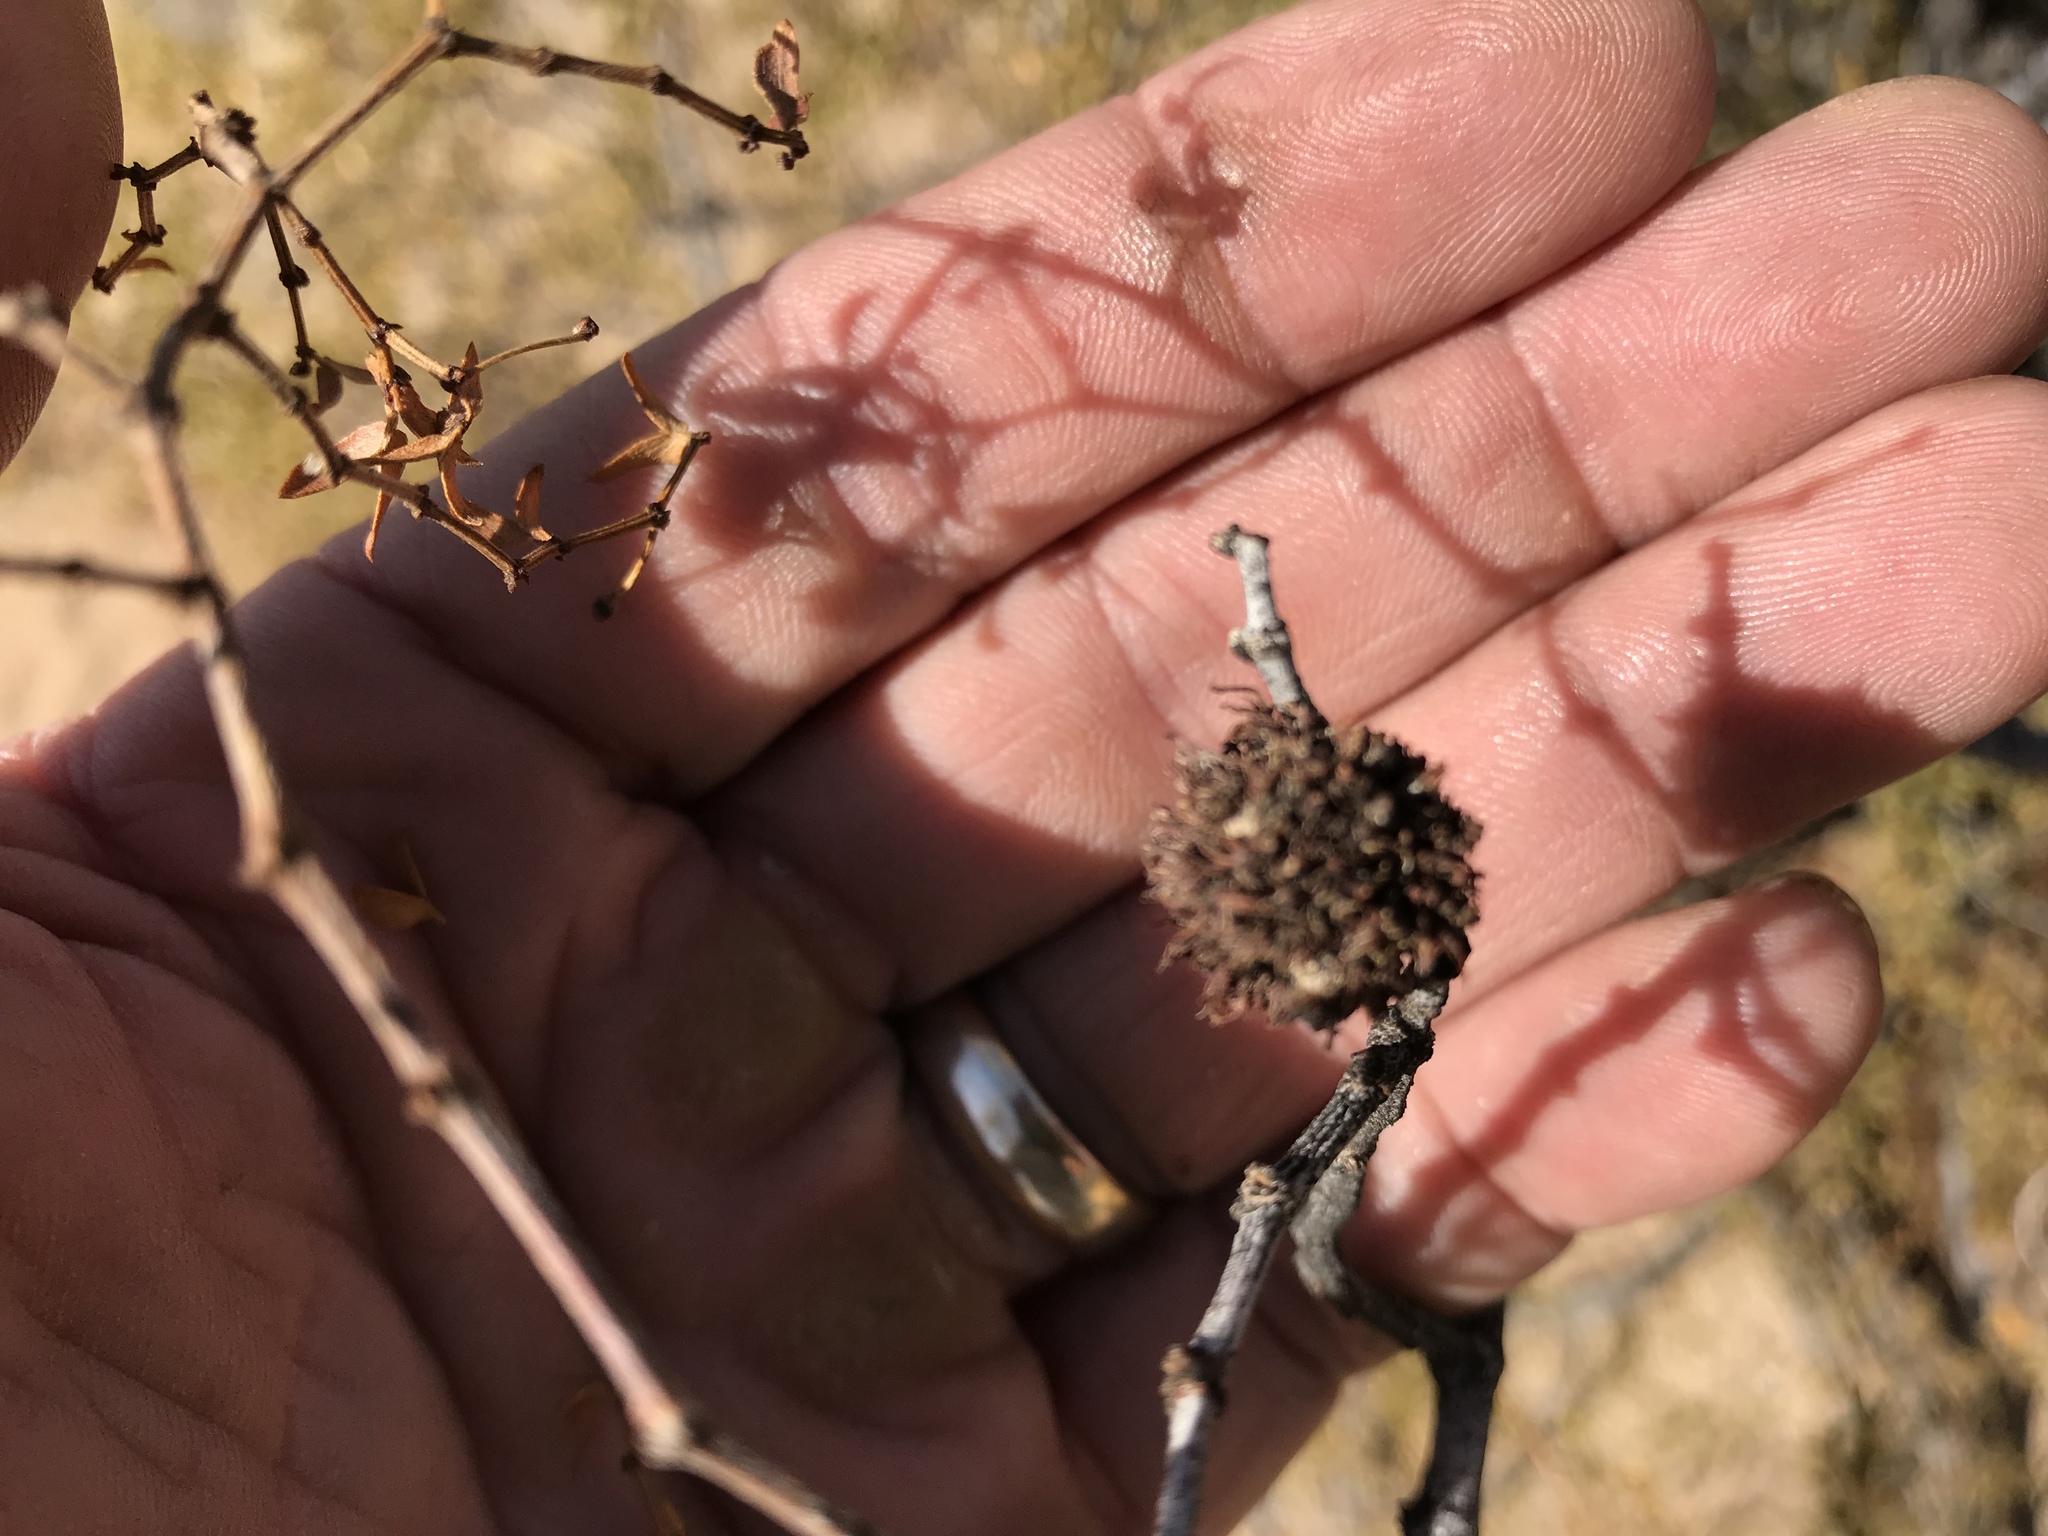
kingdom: Animalia
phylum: Arthropoda
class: Insecta
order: Diptera
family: Cecidomyiidae
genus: Asphondylia
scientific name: Asphondylia auripila
